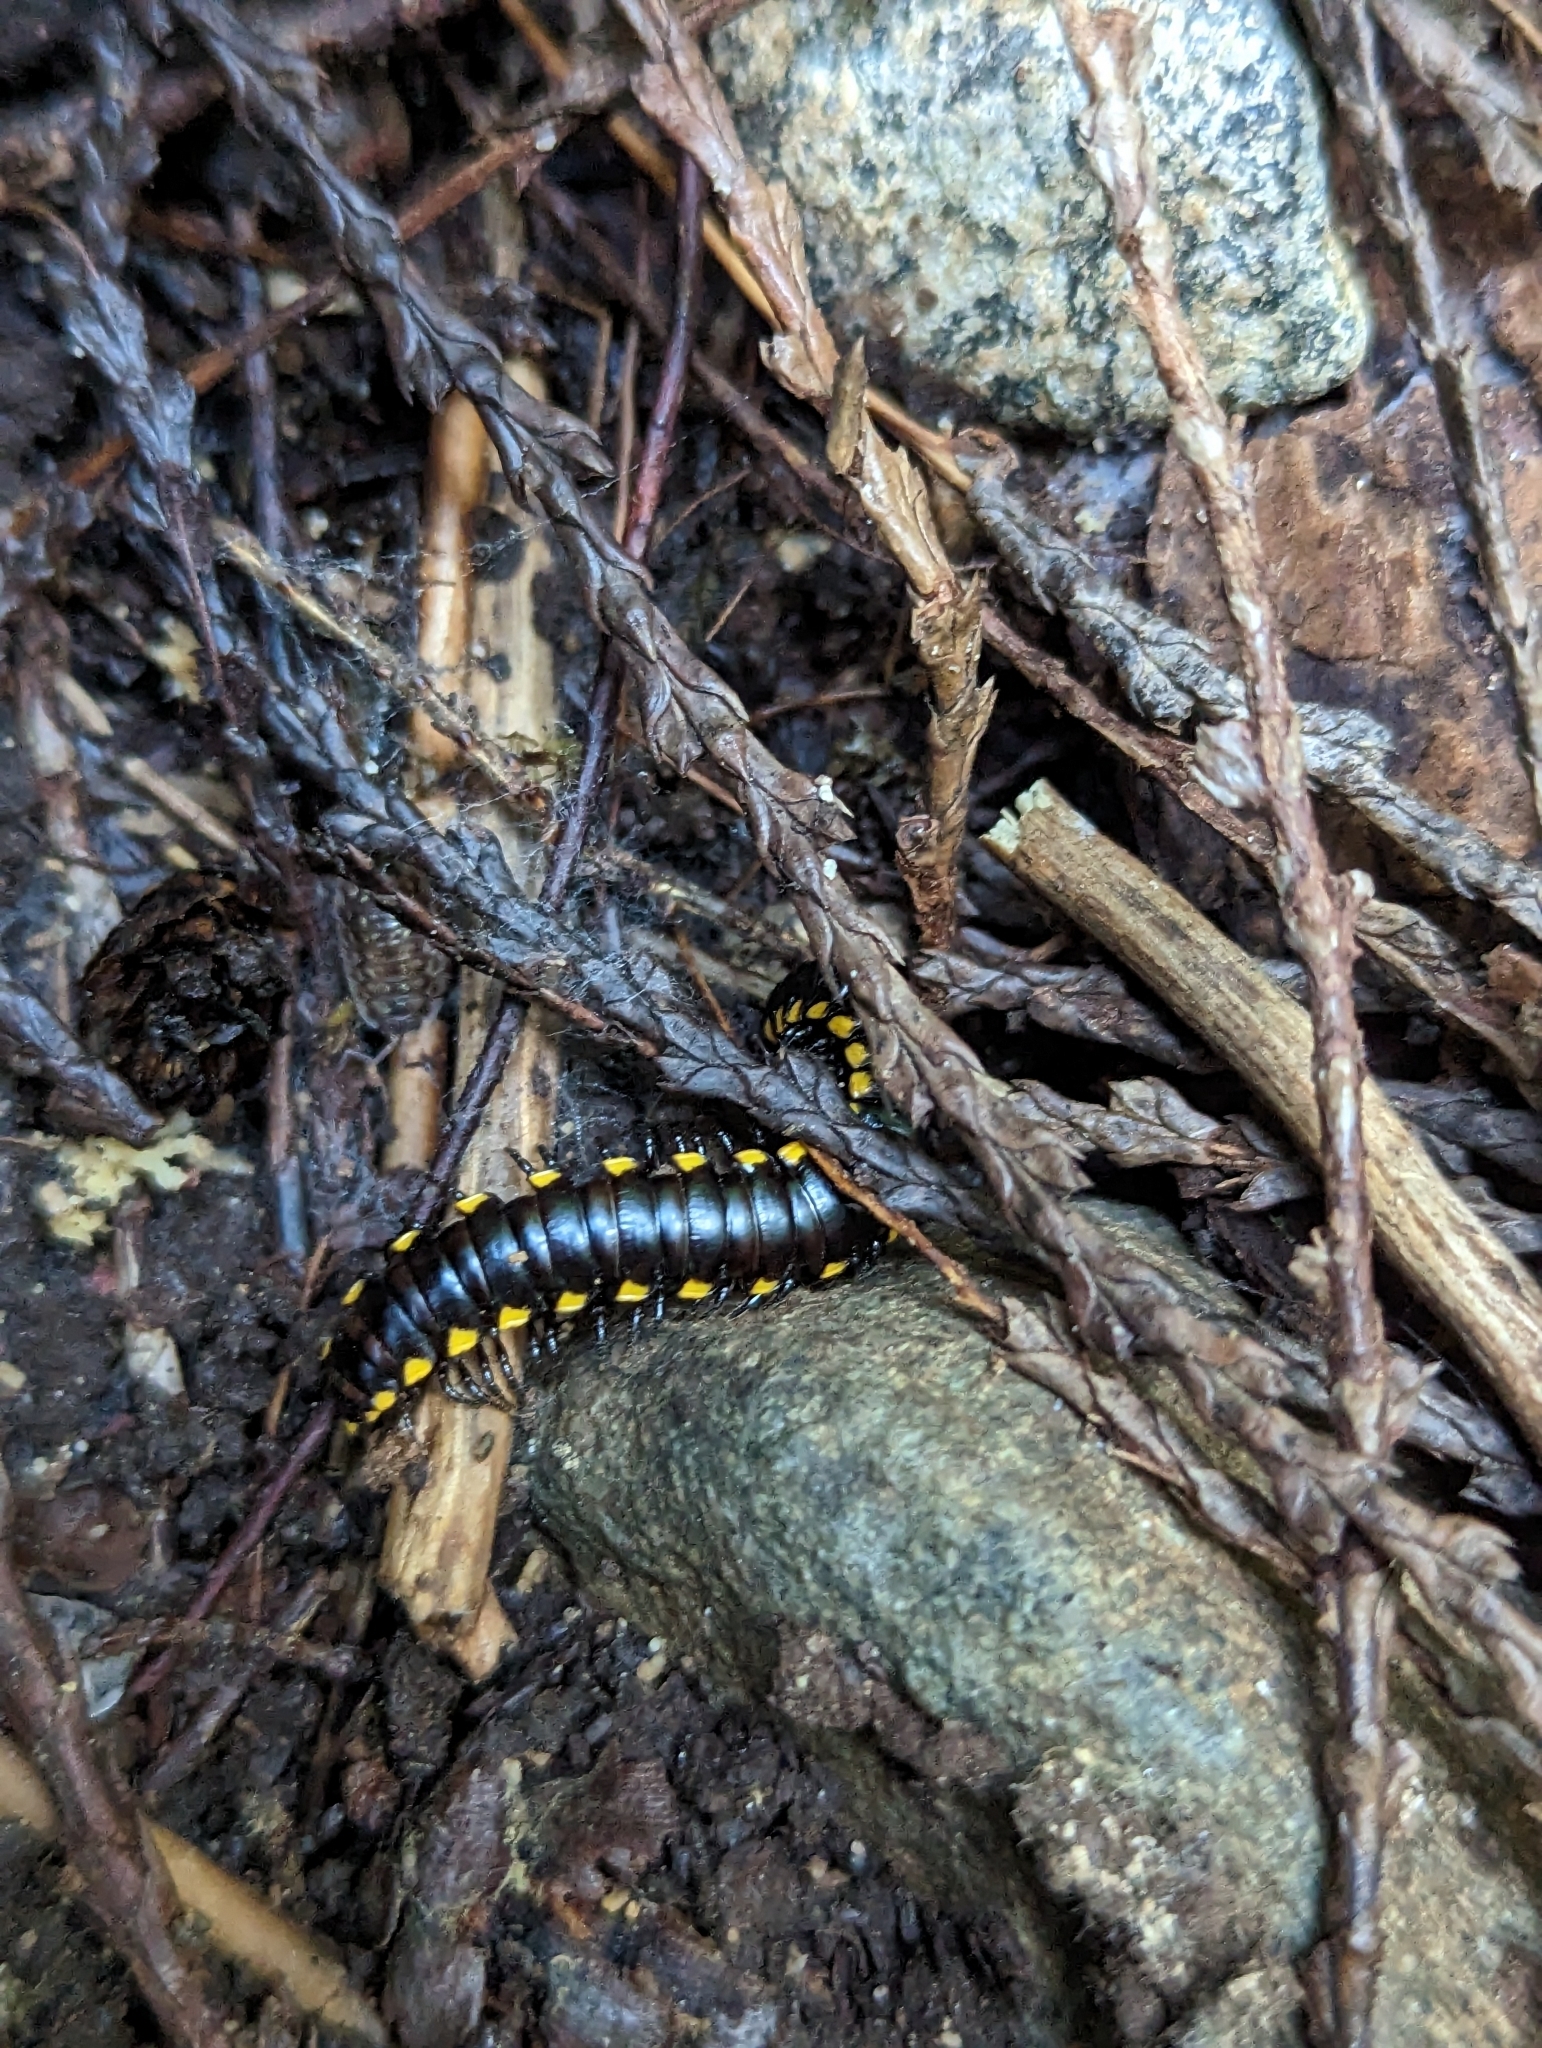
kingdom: Animalia
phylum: Arthropoda
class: Diplopoda
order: Polydesmida
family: Xystodesmidae
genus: Harpaphe
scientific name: Harpaphe haydeniana
